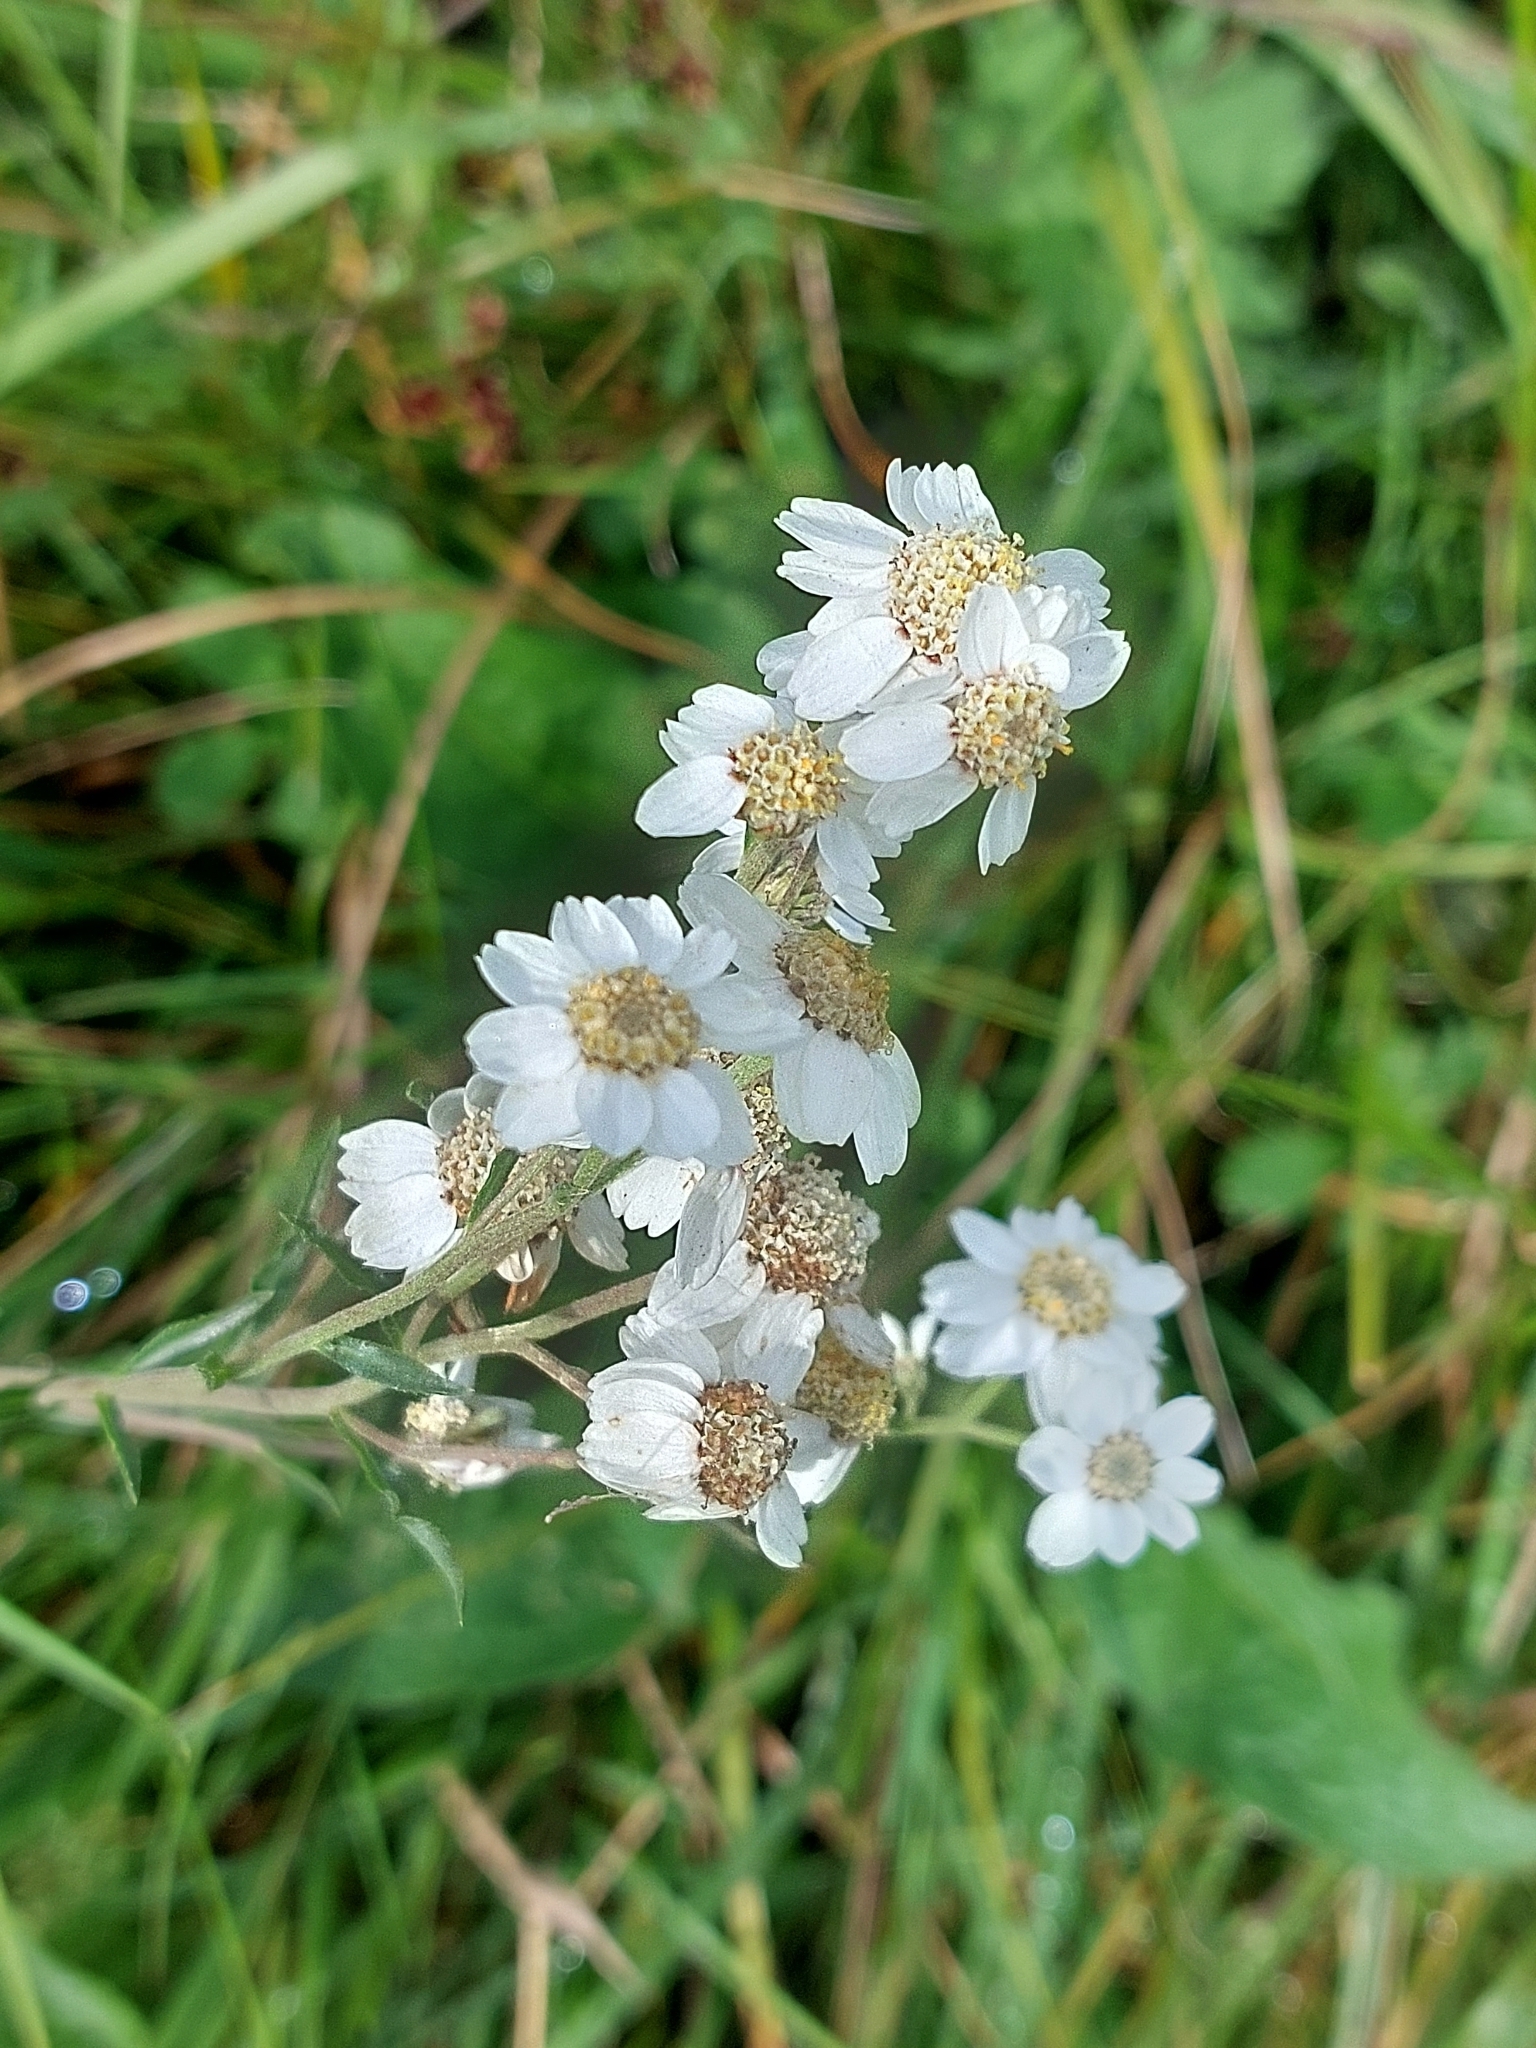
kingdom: Plantae
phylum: Tracheophyta
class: Magnoliopsida
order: Asterales
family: Asteraceae
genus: Achillea
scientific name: Achillea ptarmica
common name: Sneezeweed
